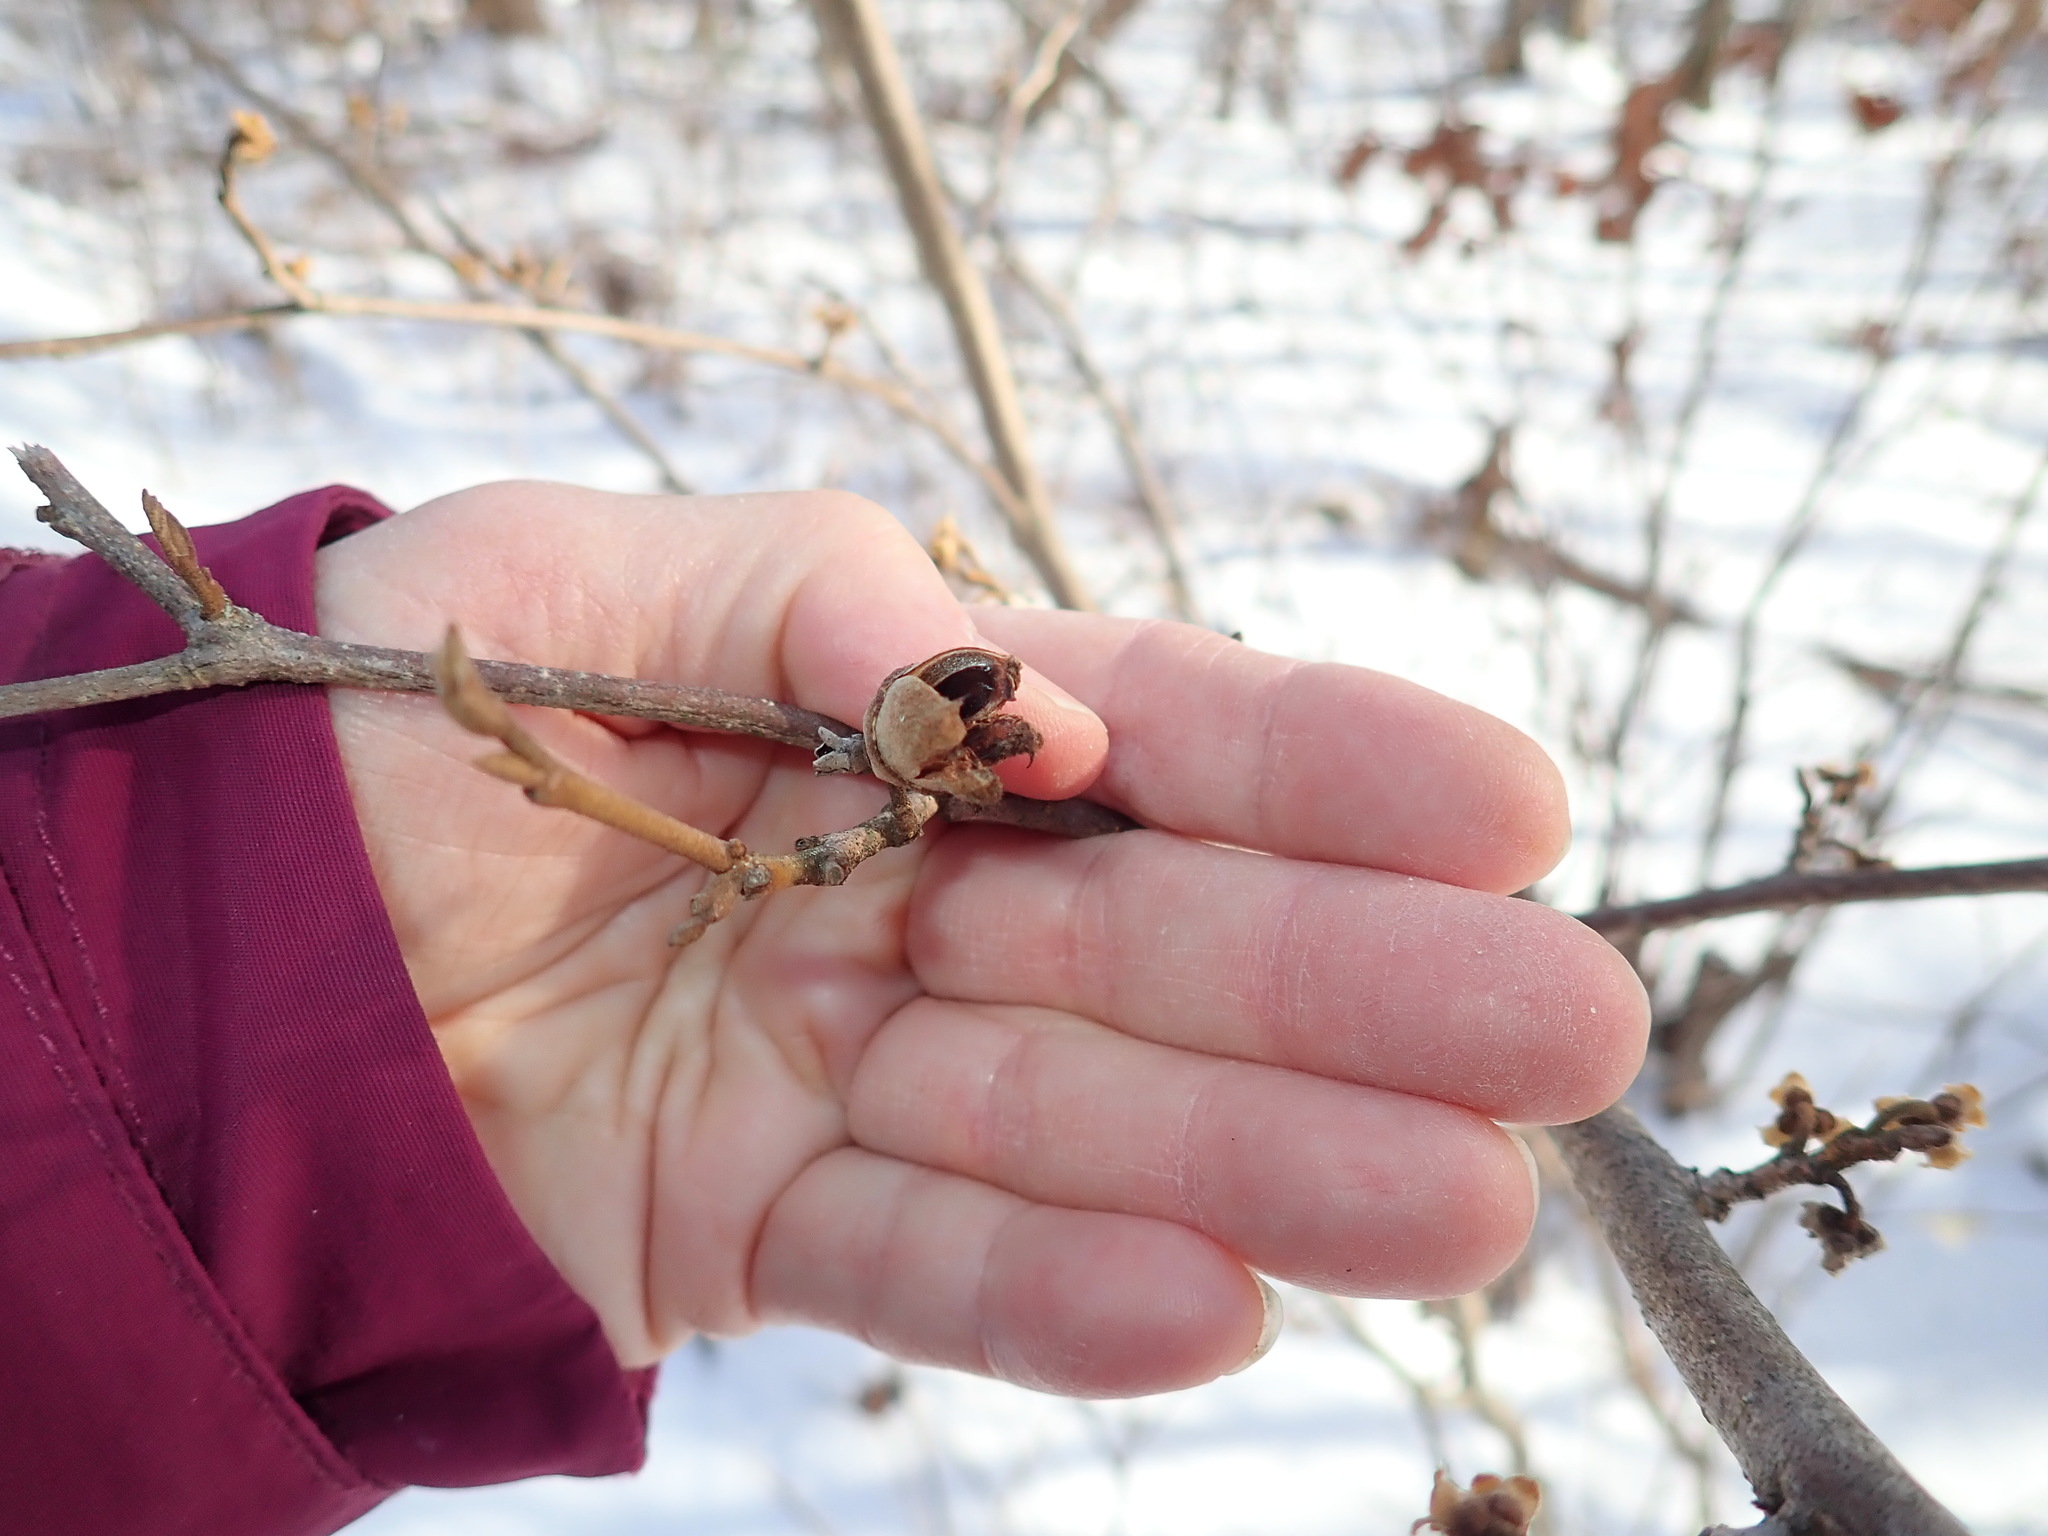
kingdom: Plantae
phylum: Tracheophyta
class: Magnoliopsida
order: Saxifragales
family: Hamamelidaceae
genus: Hamamelis
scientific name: Hamamelis virginiana
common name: Witch-hazel
